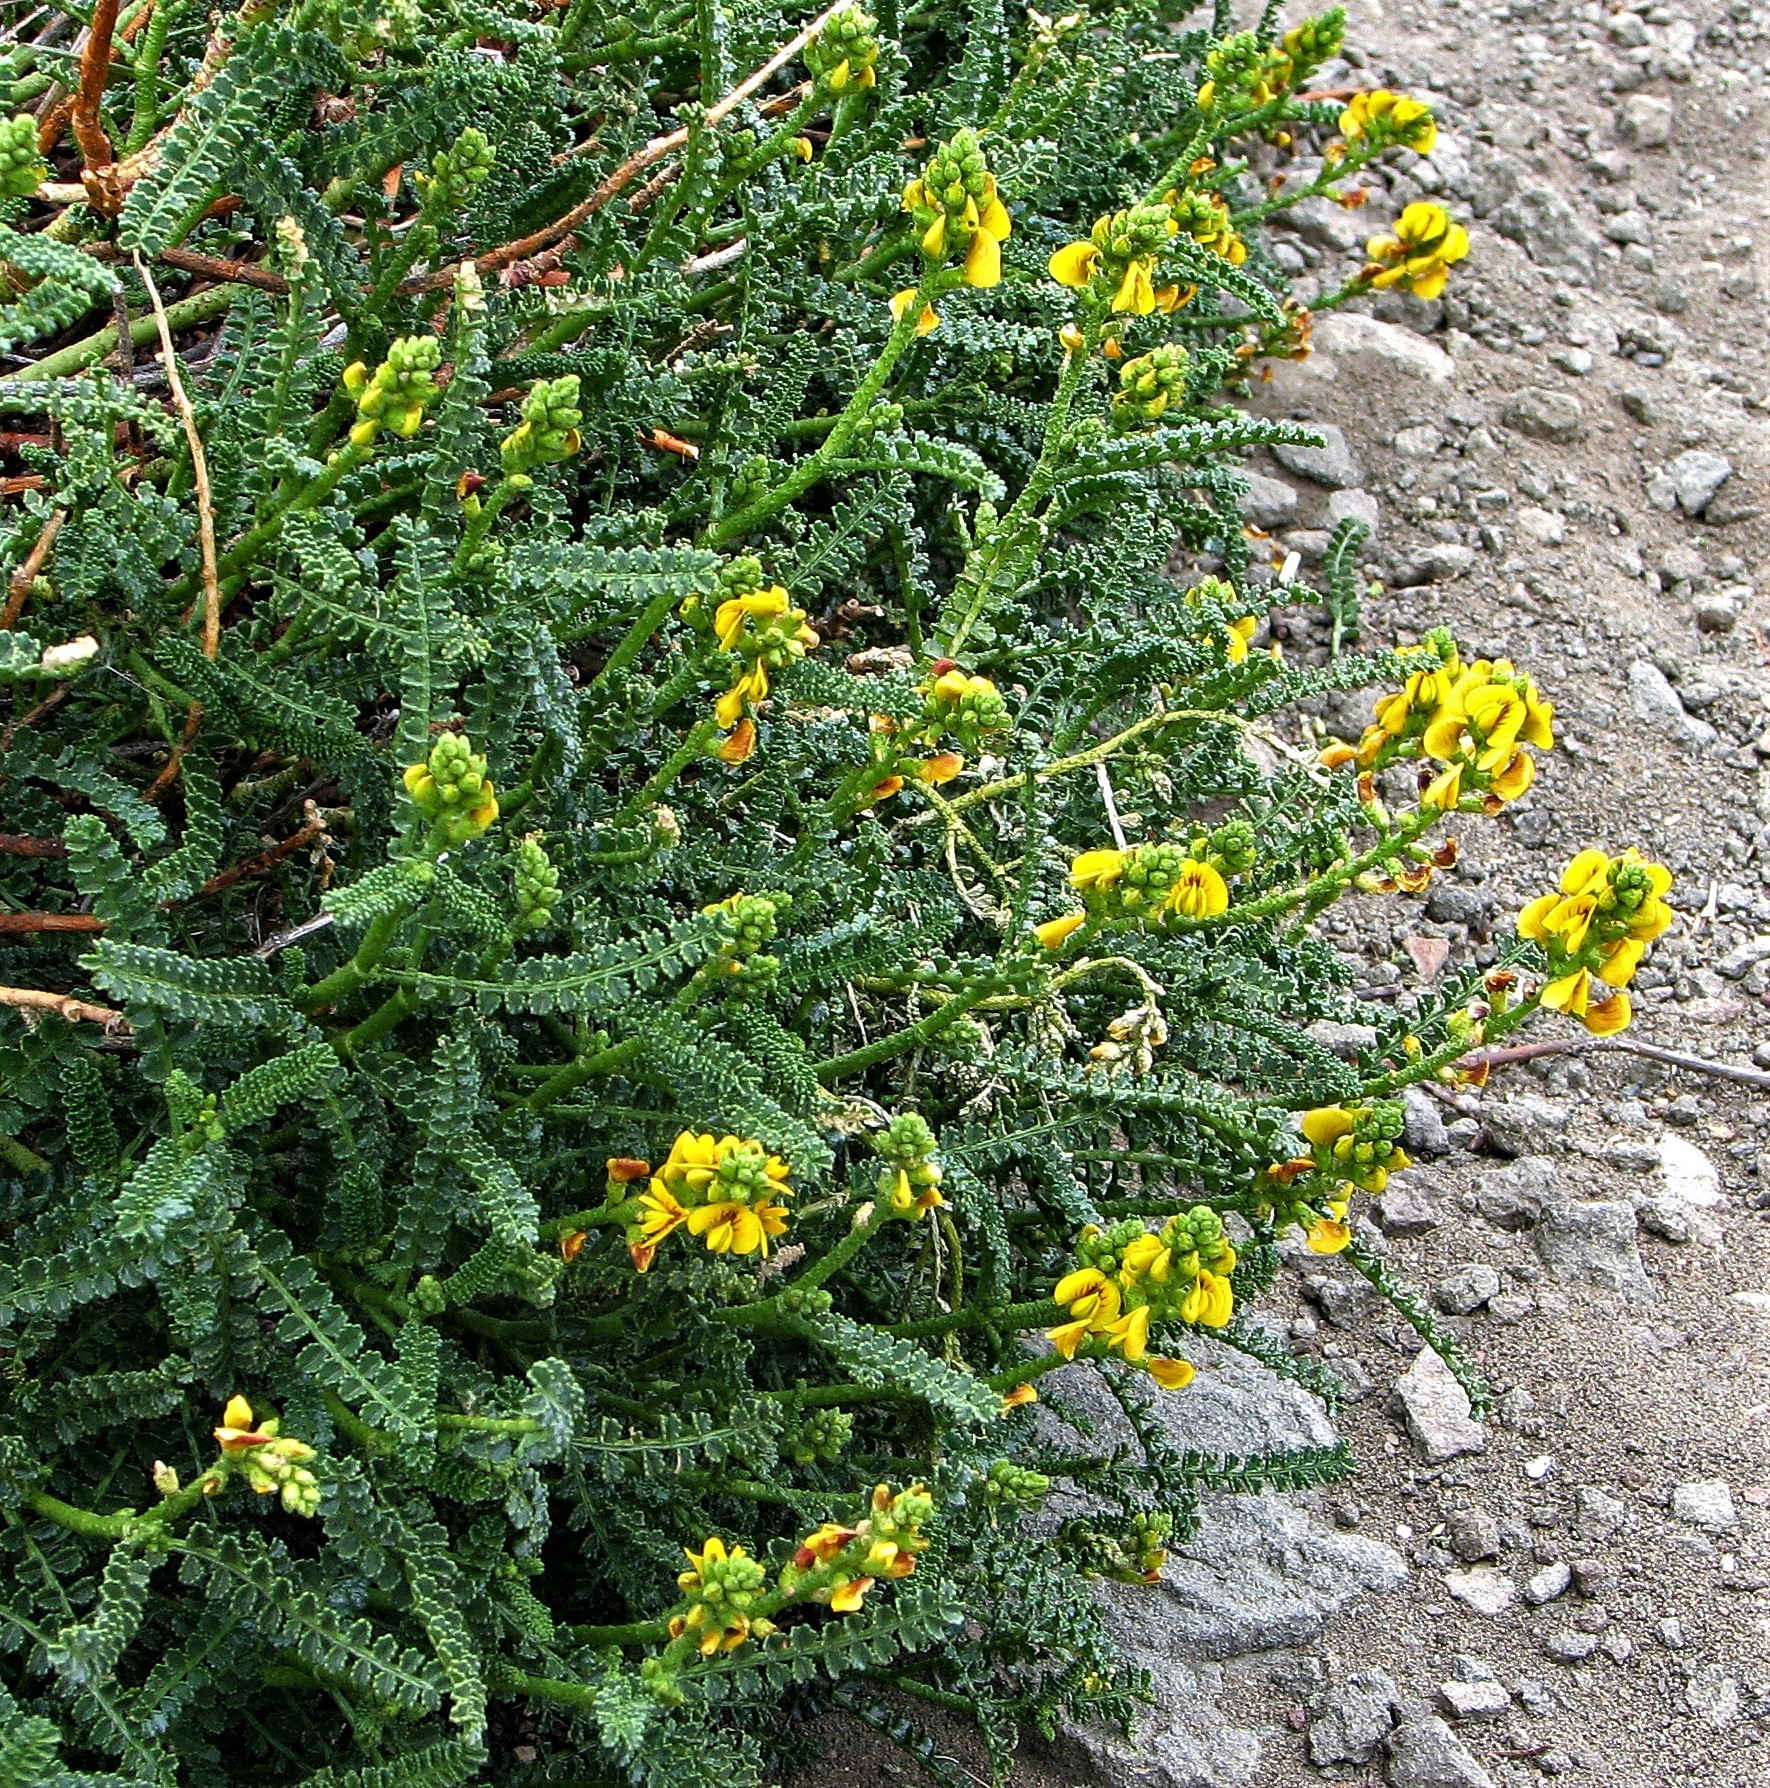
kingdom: Plantae
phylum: Tracheophyta
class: Magnoliopsida
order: Fabales
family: Fabaceae
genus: Adesmia
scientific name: Adesmia boronioides
